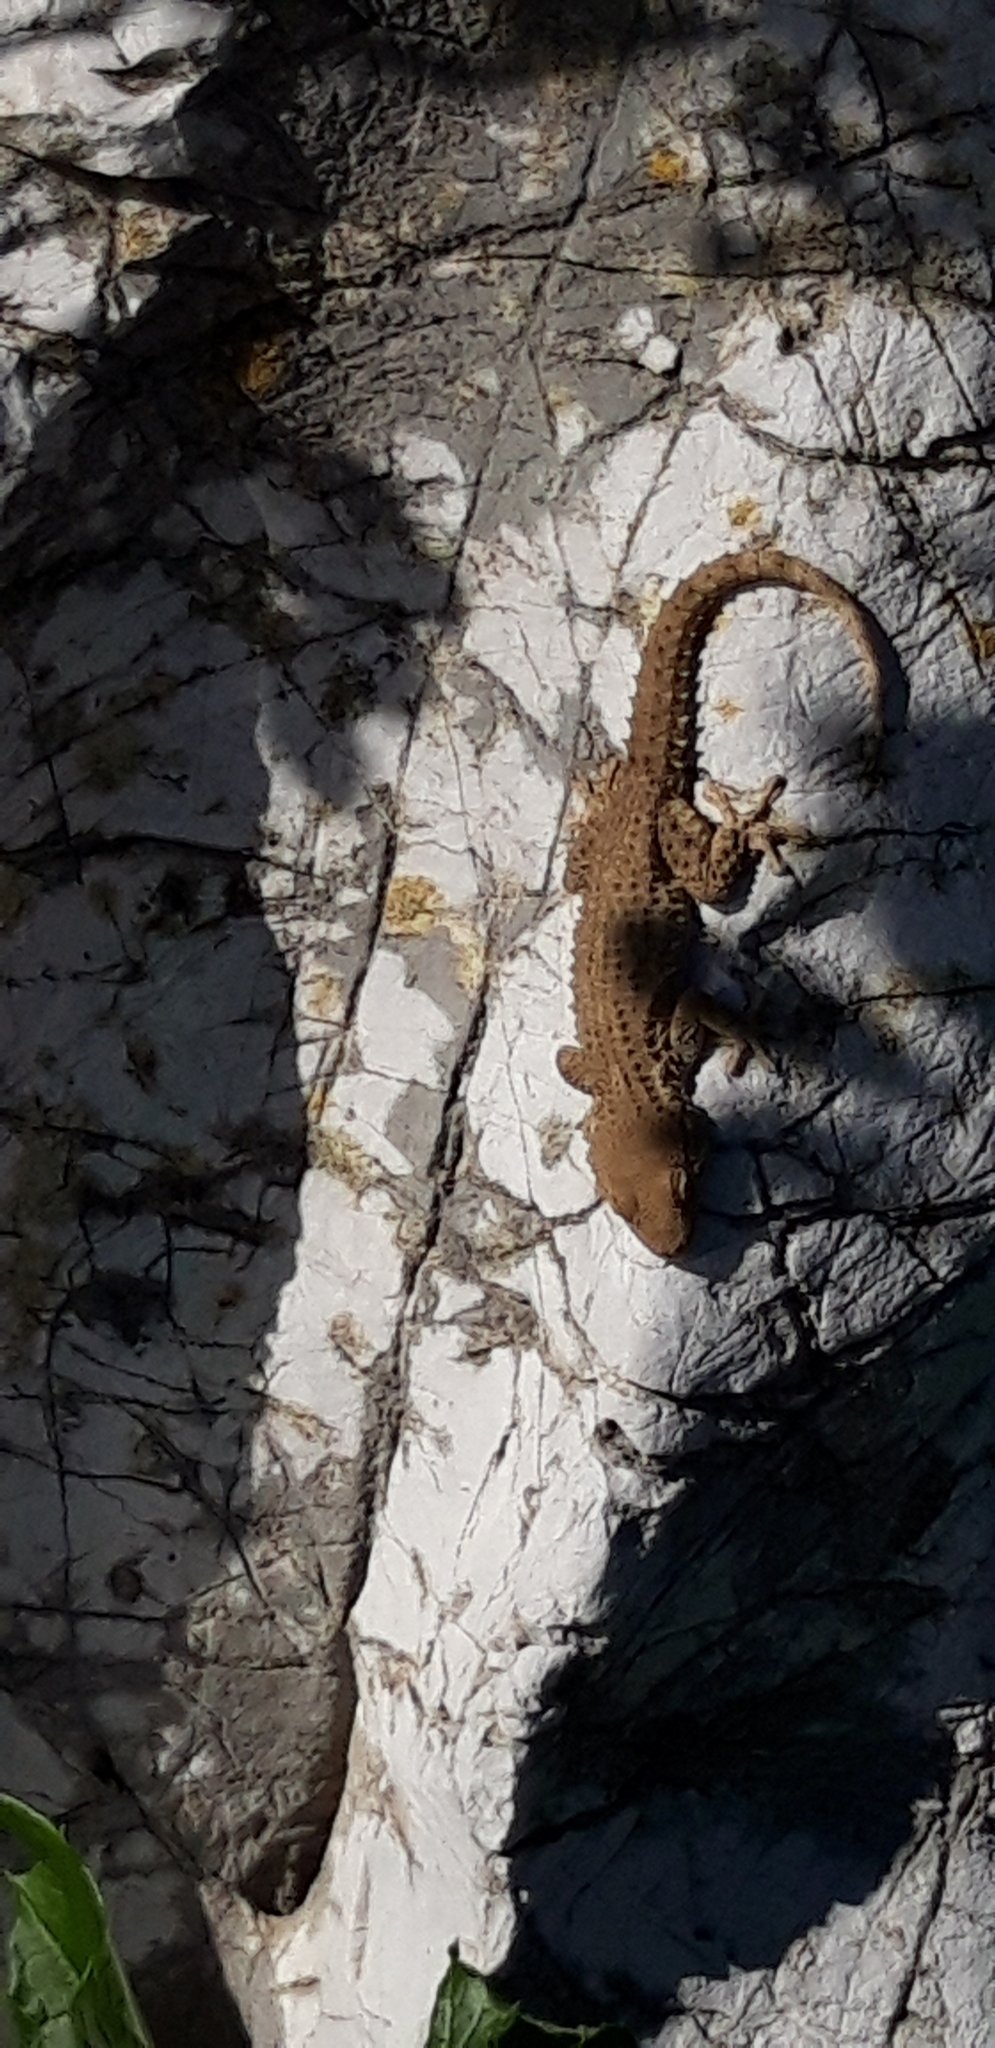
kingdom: Animalia
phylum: Chordata
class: Squamata
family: Phyllodactylidae
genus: Tarentola
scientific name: Tarentola mauritanica
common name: Moorish gecko
